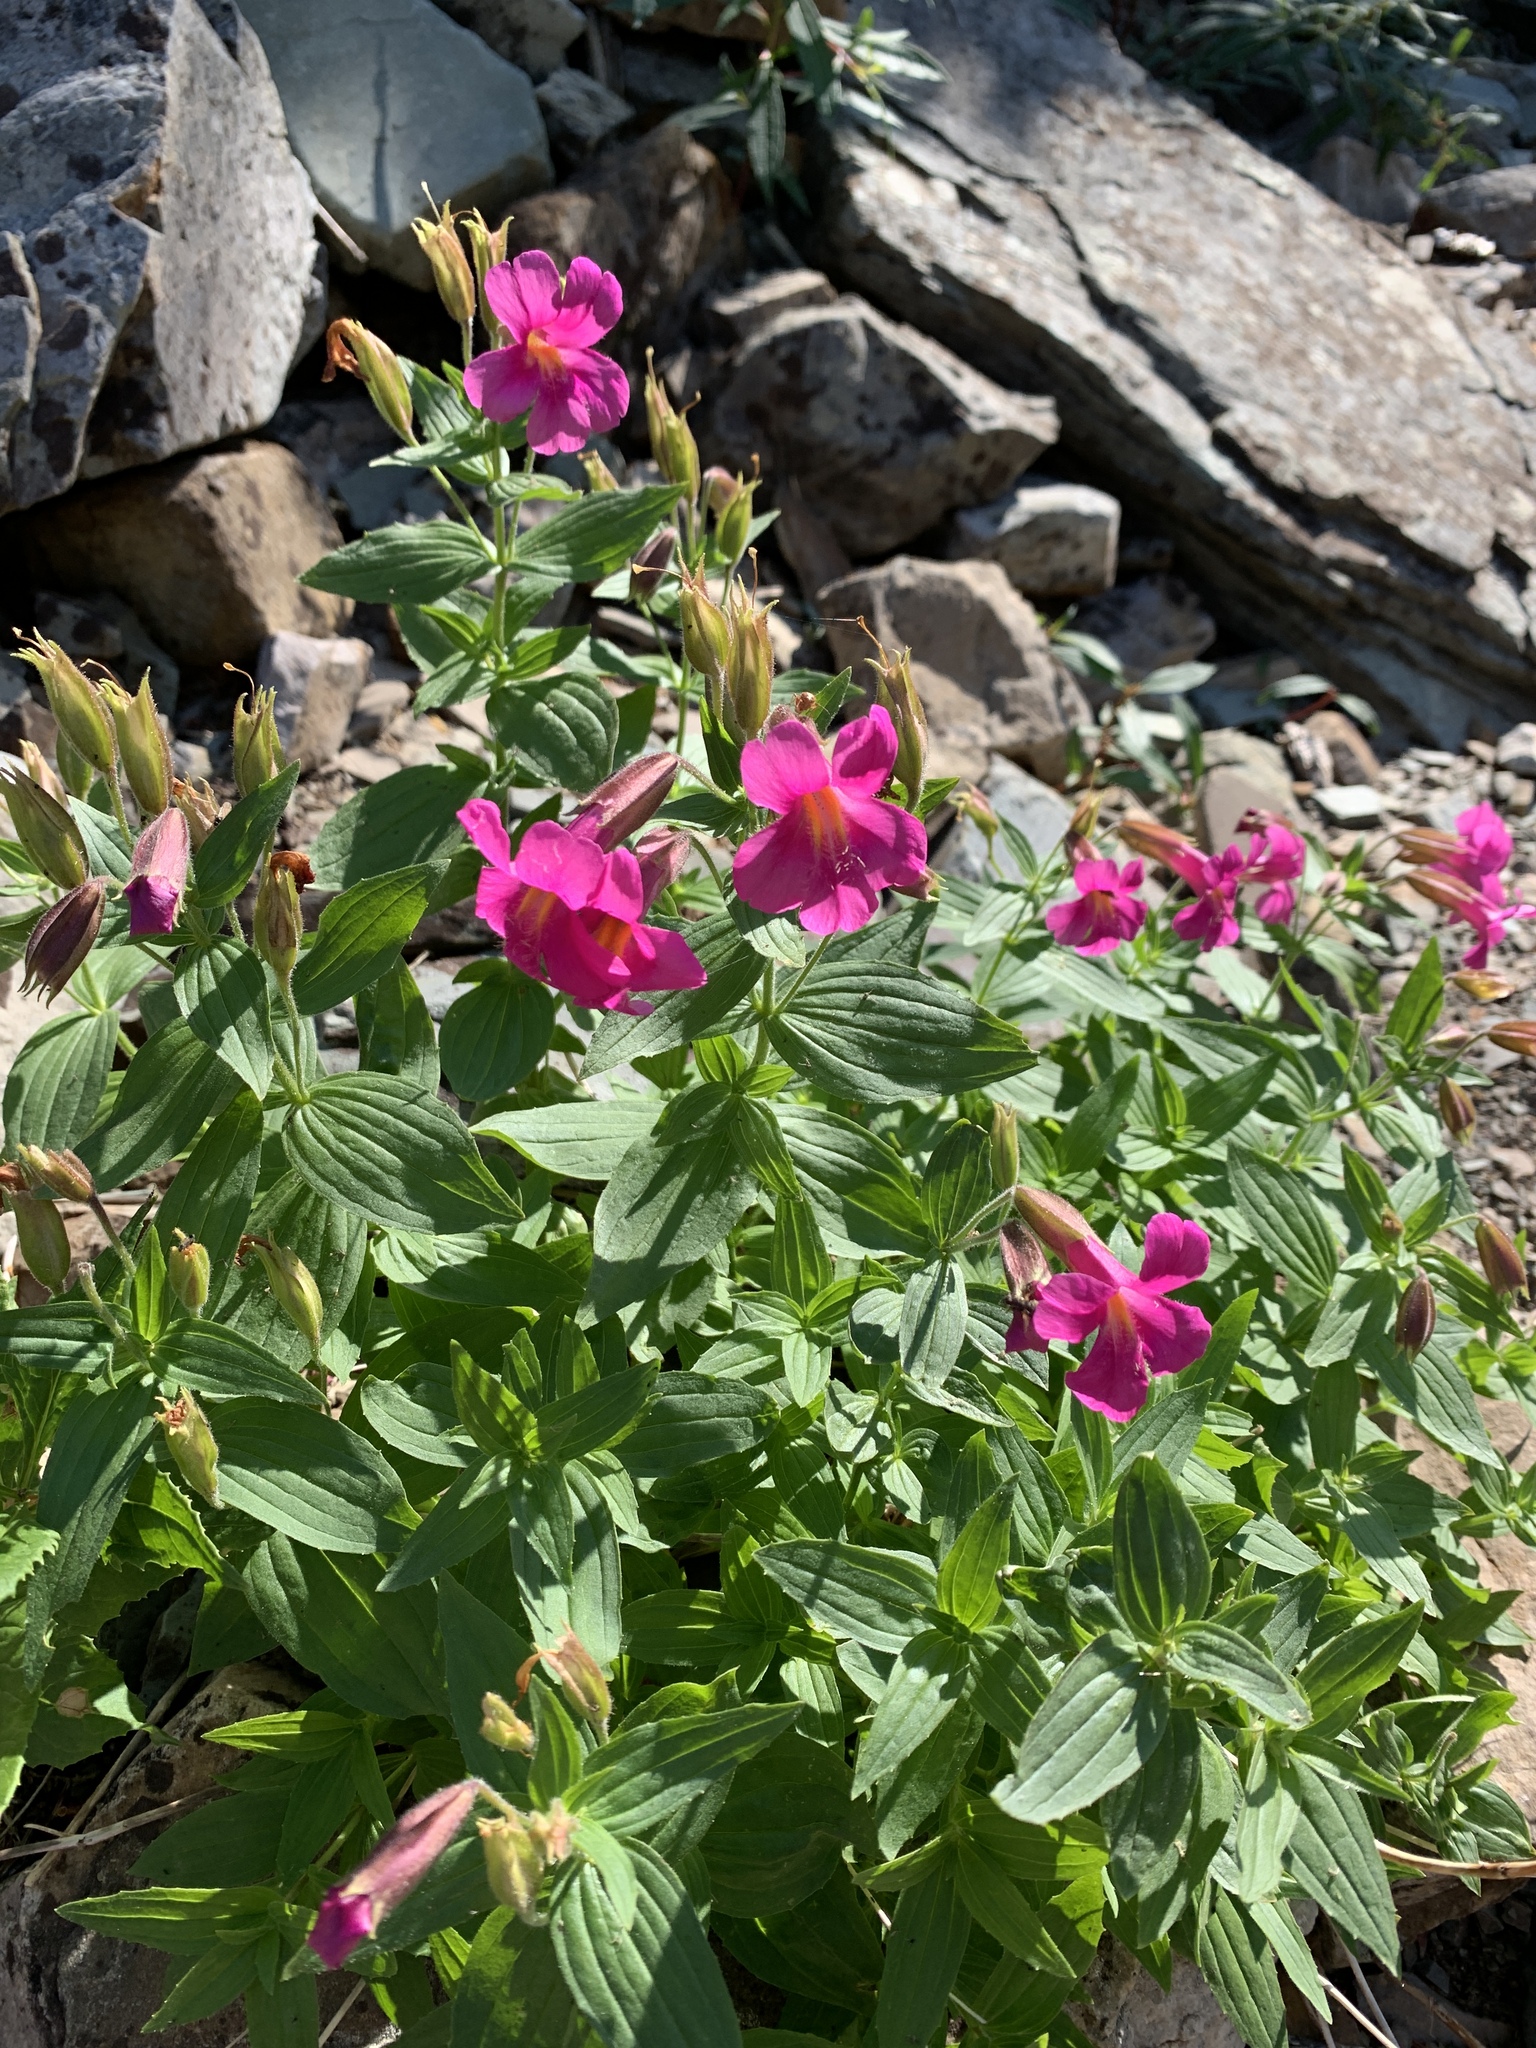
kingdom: Plantae
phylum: Tracheophyta
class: Magnoliopsida
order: Lamiales
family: Phrymaceae
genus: Erythranthe
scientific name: Erythranthe lewisii
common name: Lewis's monkey-flower
